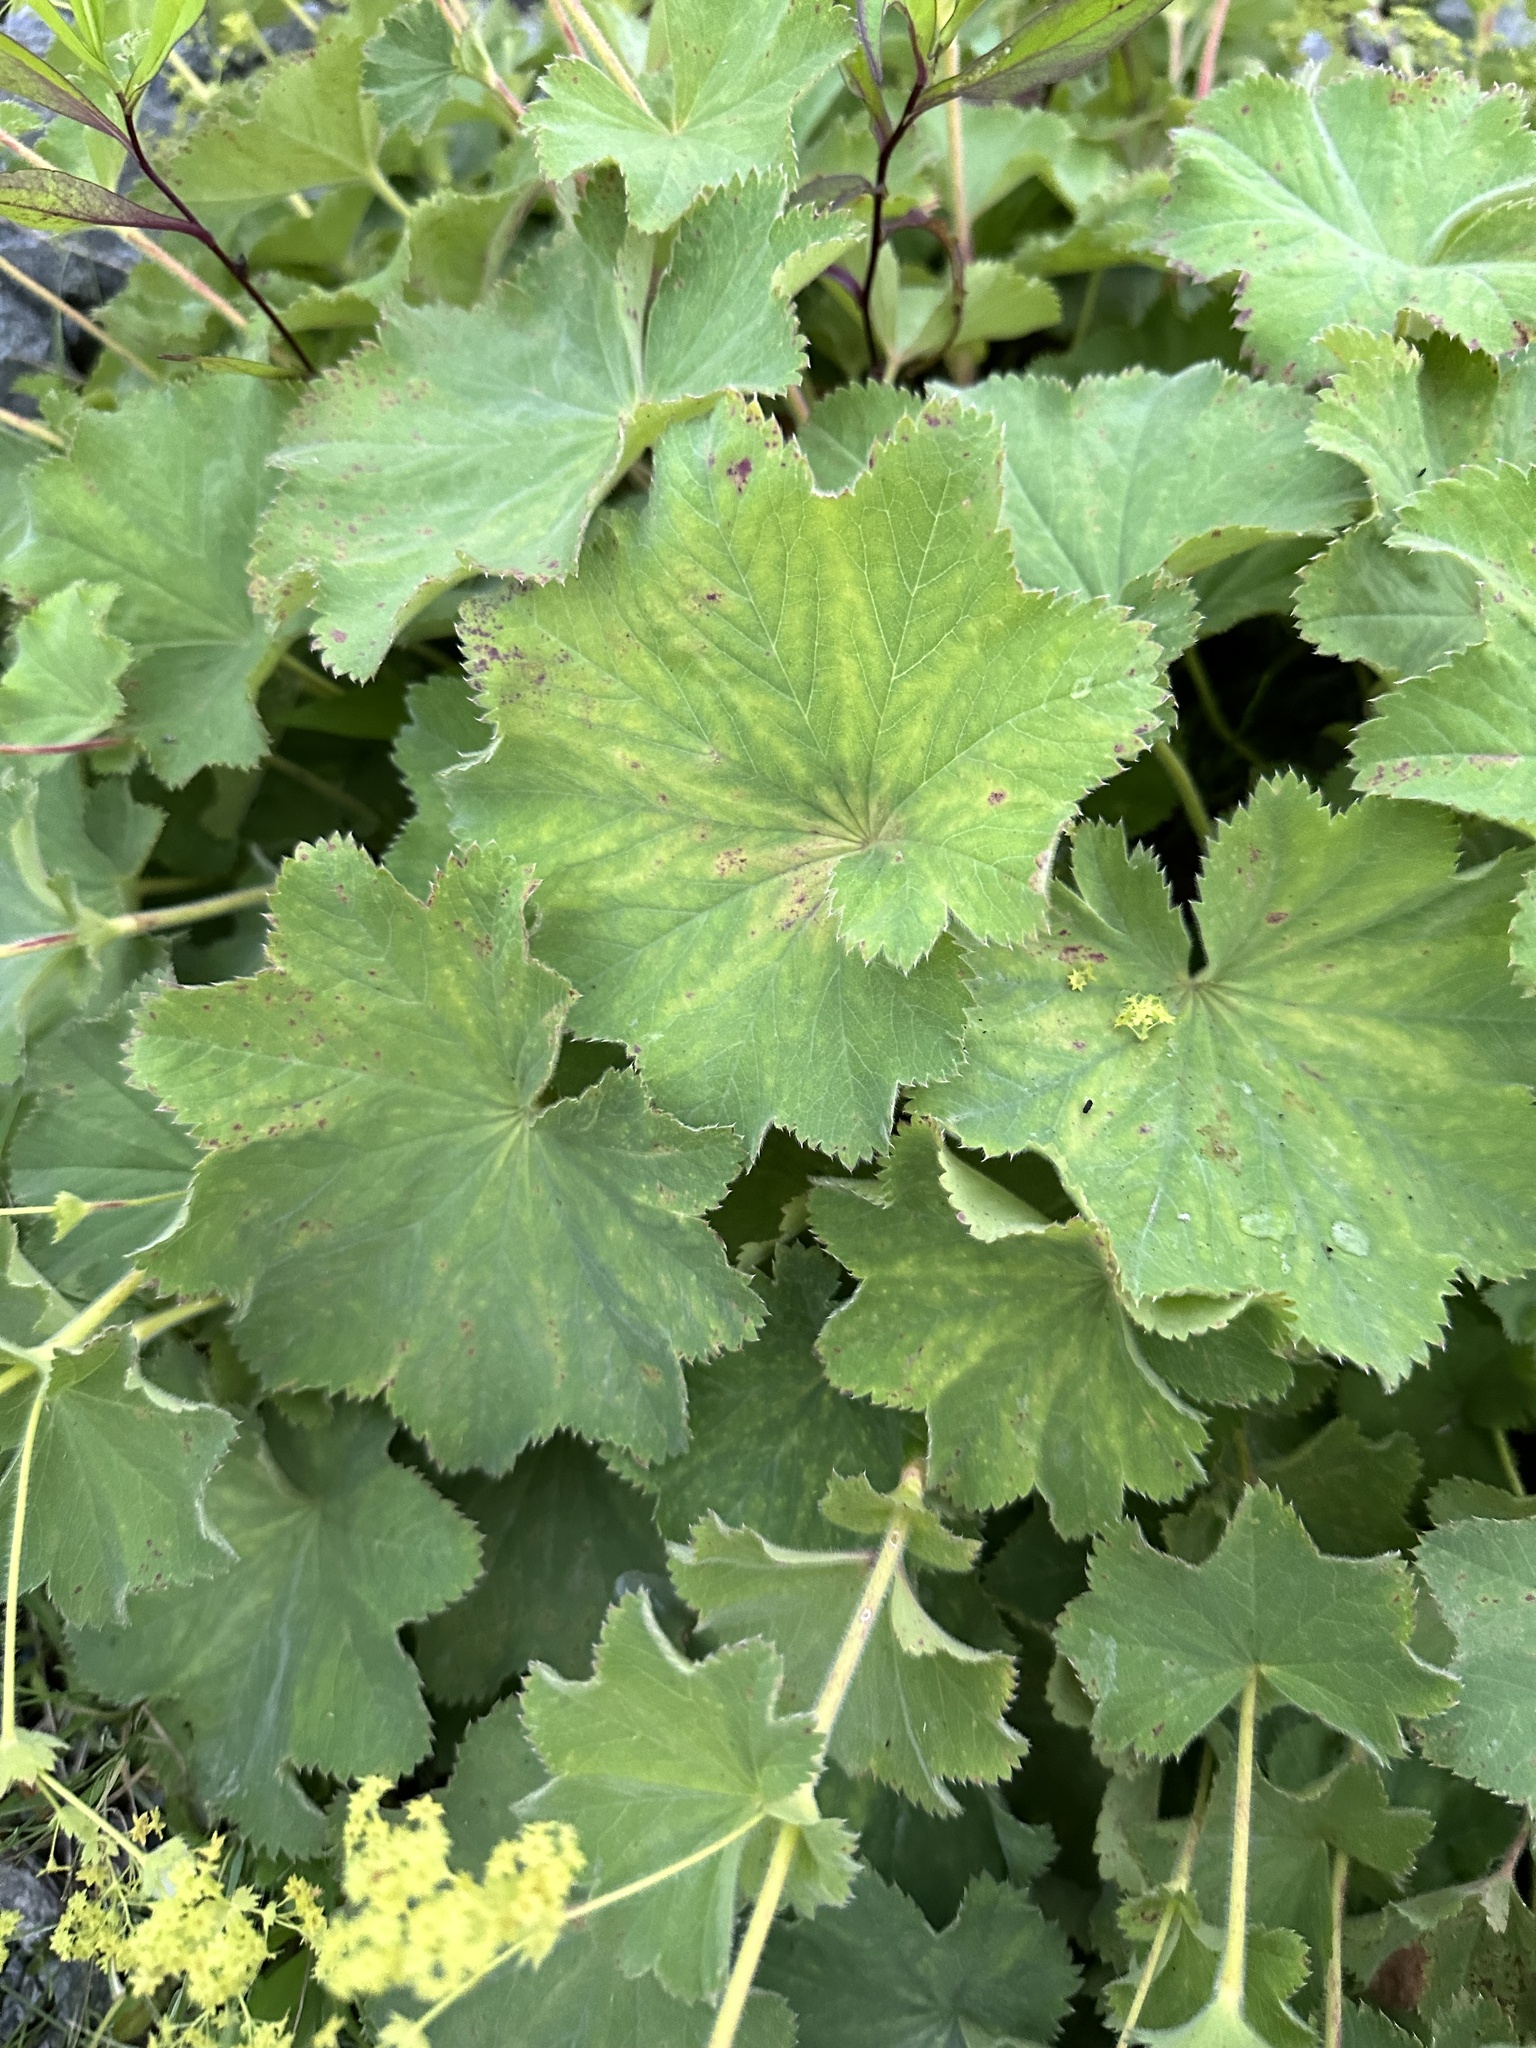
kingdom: Plantae
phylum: Tracheophyta
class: Magnoliopsida
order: Rosales
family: Rosaceae
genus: Alchemilla
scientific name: Alchemilla mollis
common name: Lady's-mantle
